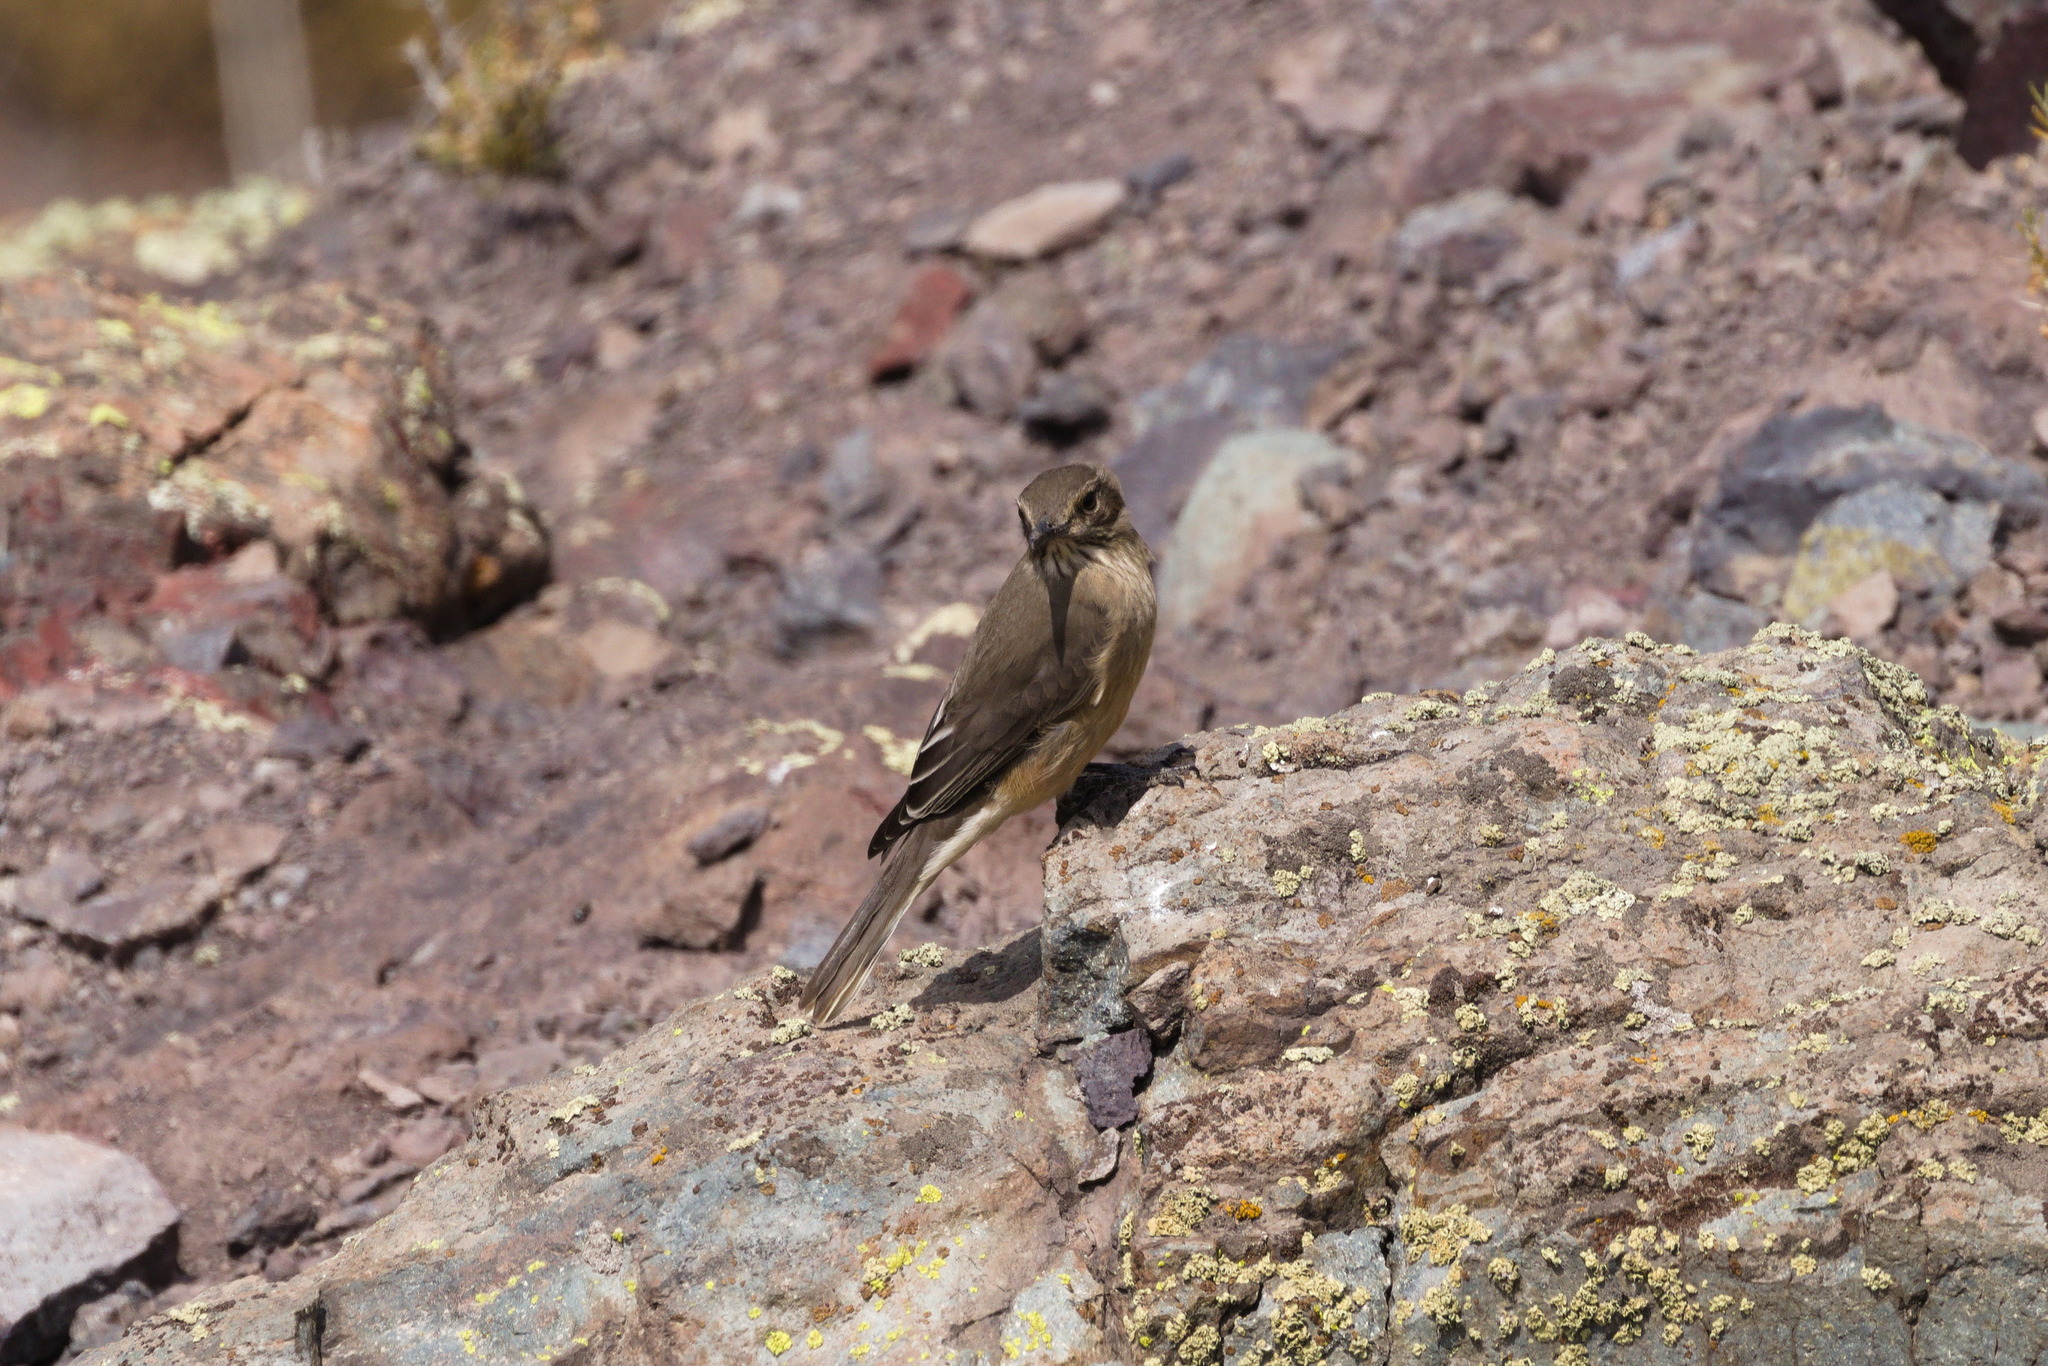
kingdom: Animalia
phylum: Chordata
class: Aves
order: Passeriformes
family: Tyrannidae
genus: Agriornis
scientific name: Agriornis montanus
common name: Black-billed shrike-tyrant
